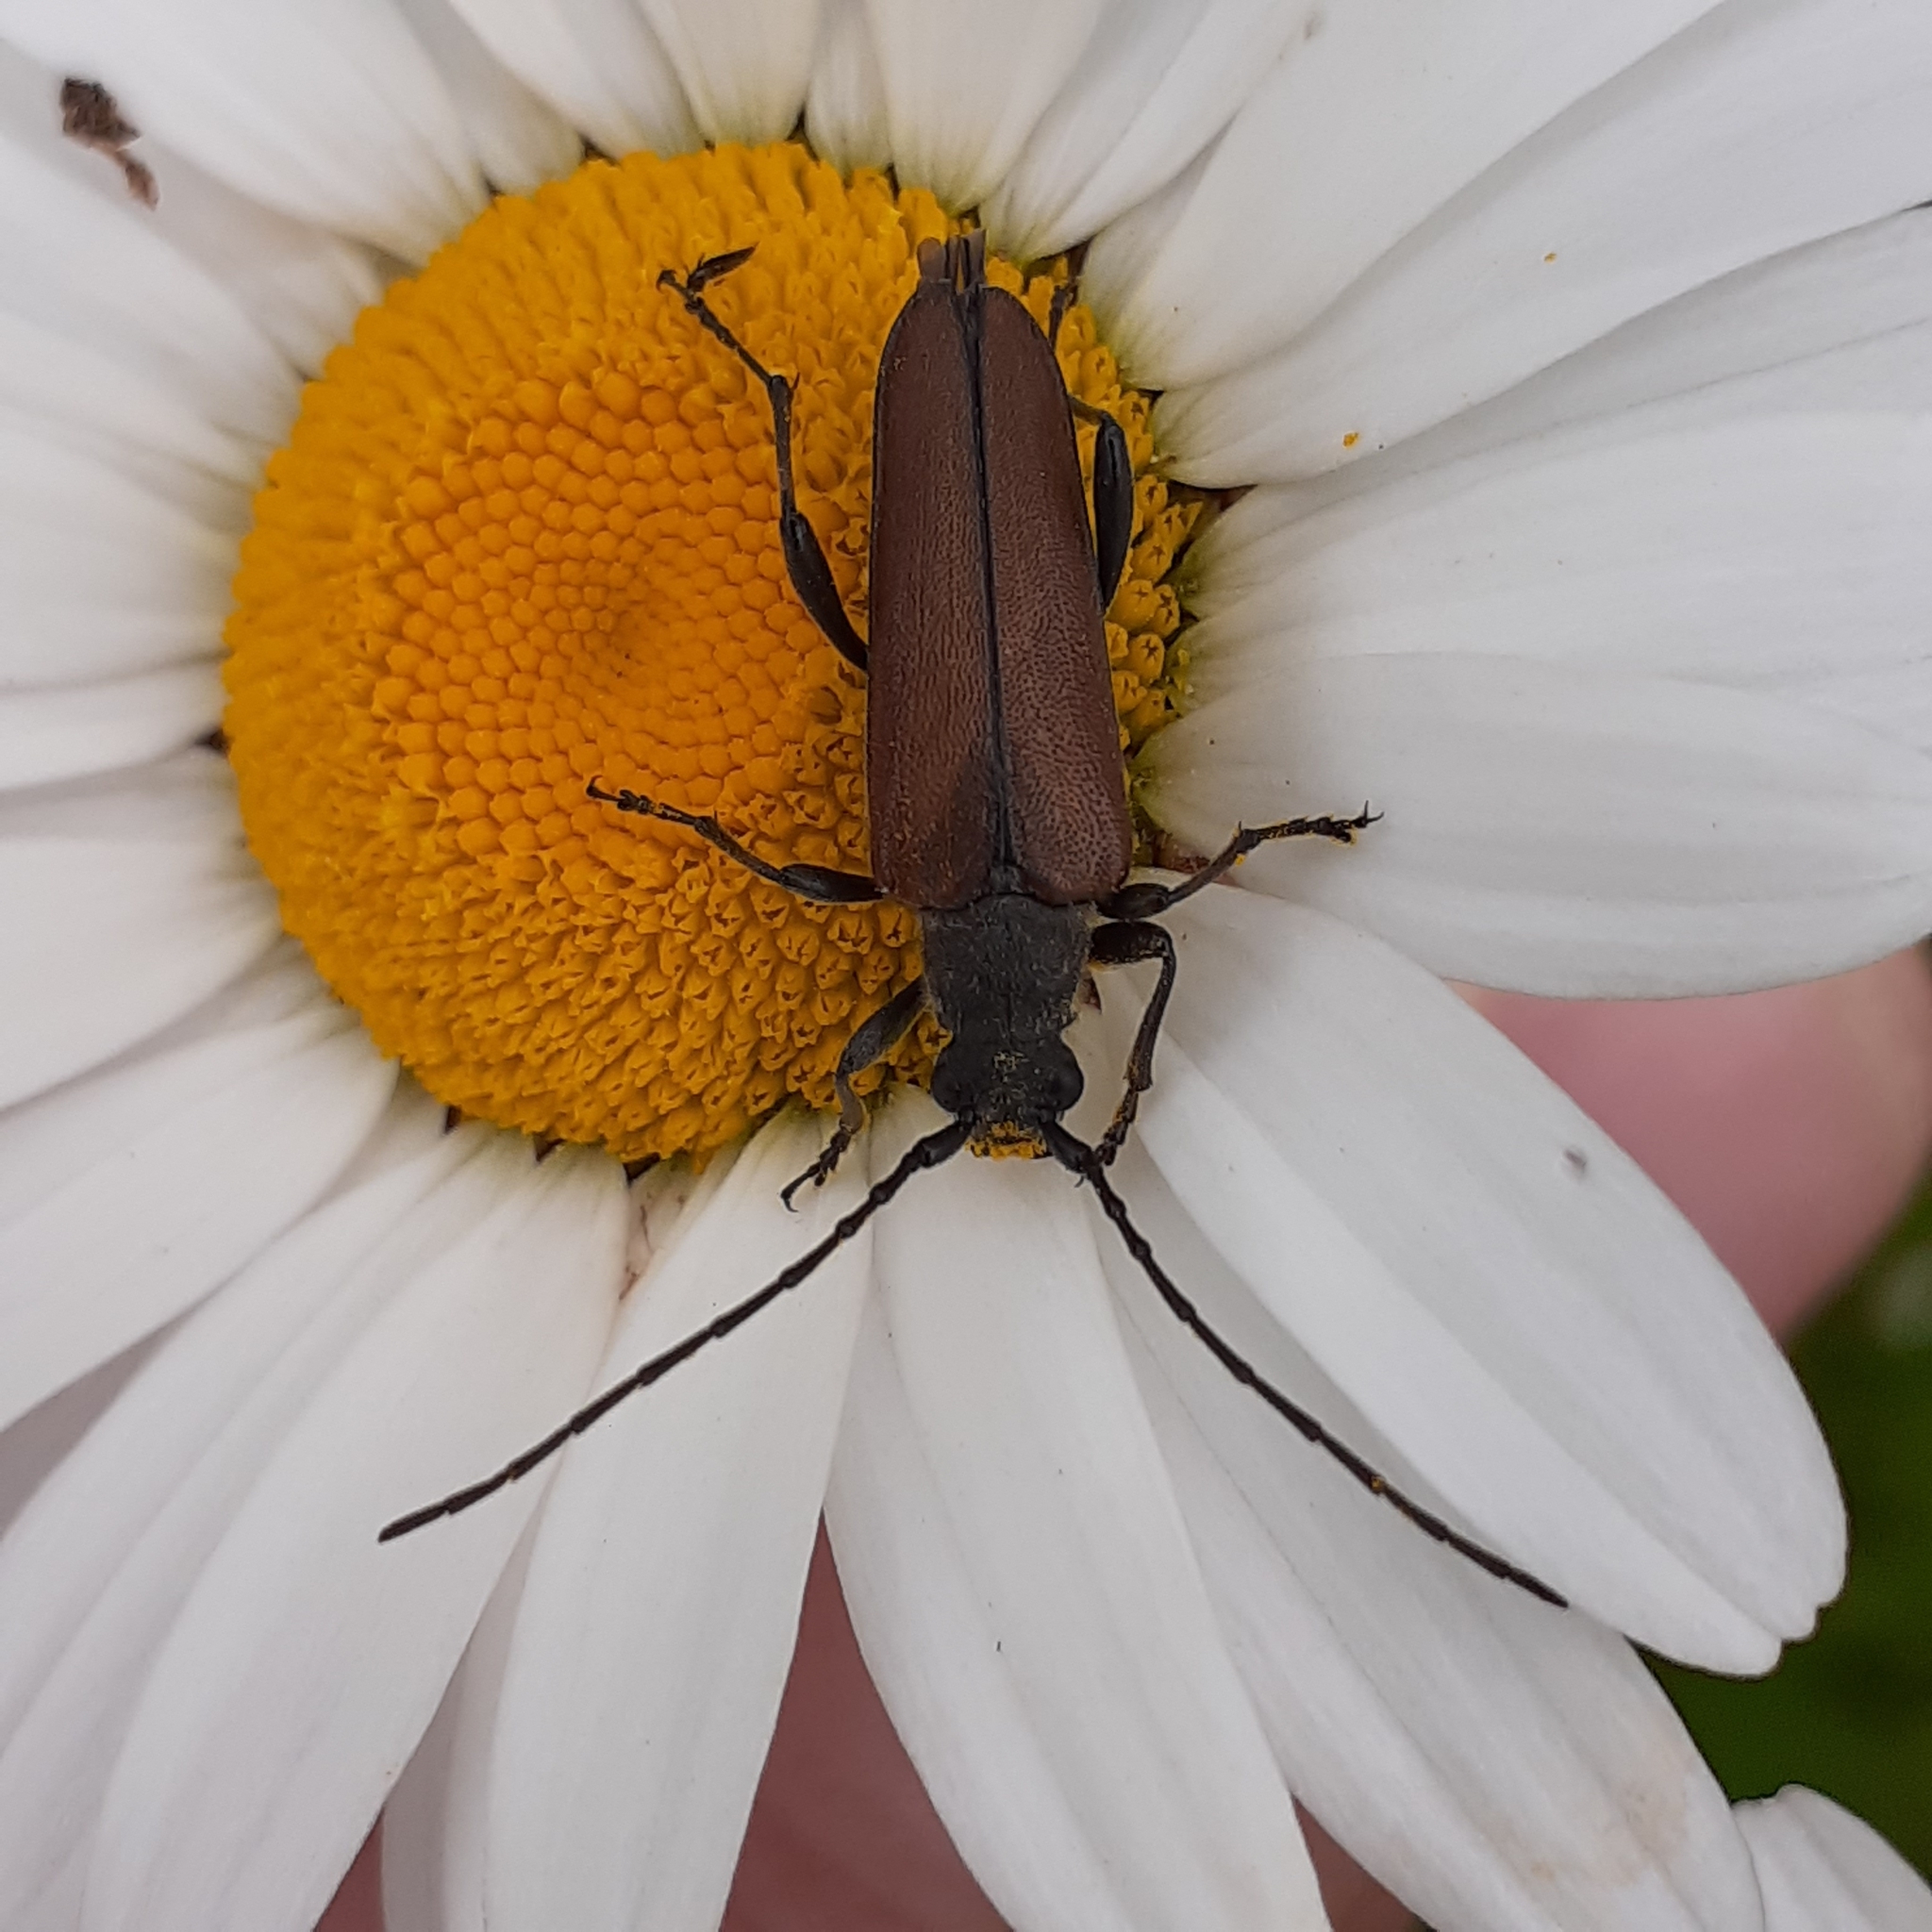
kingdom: Animalia
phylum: Arthropoda
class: Insecta
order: Coleoptera
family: Cerambycidae
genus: Trachysida
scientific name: Trachysida mutabilis
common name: Changeable flower longhorn
